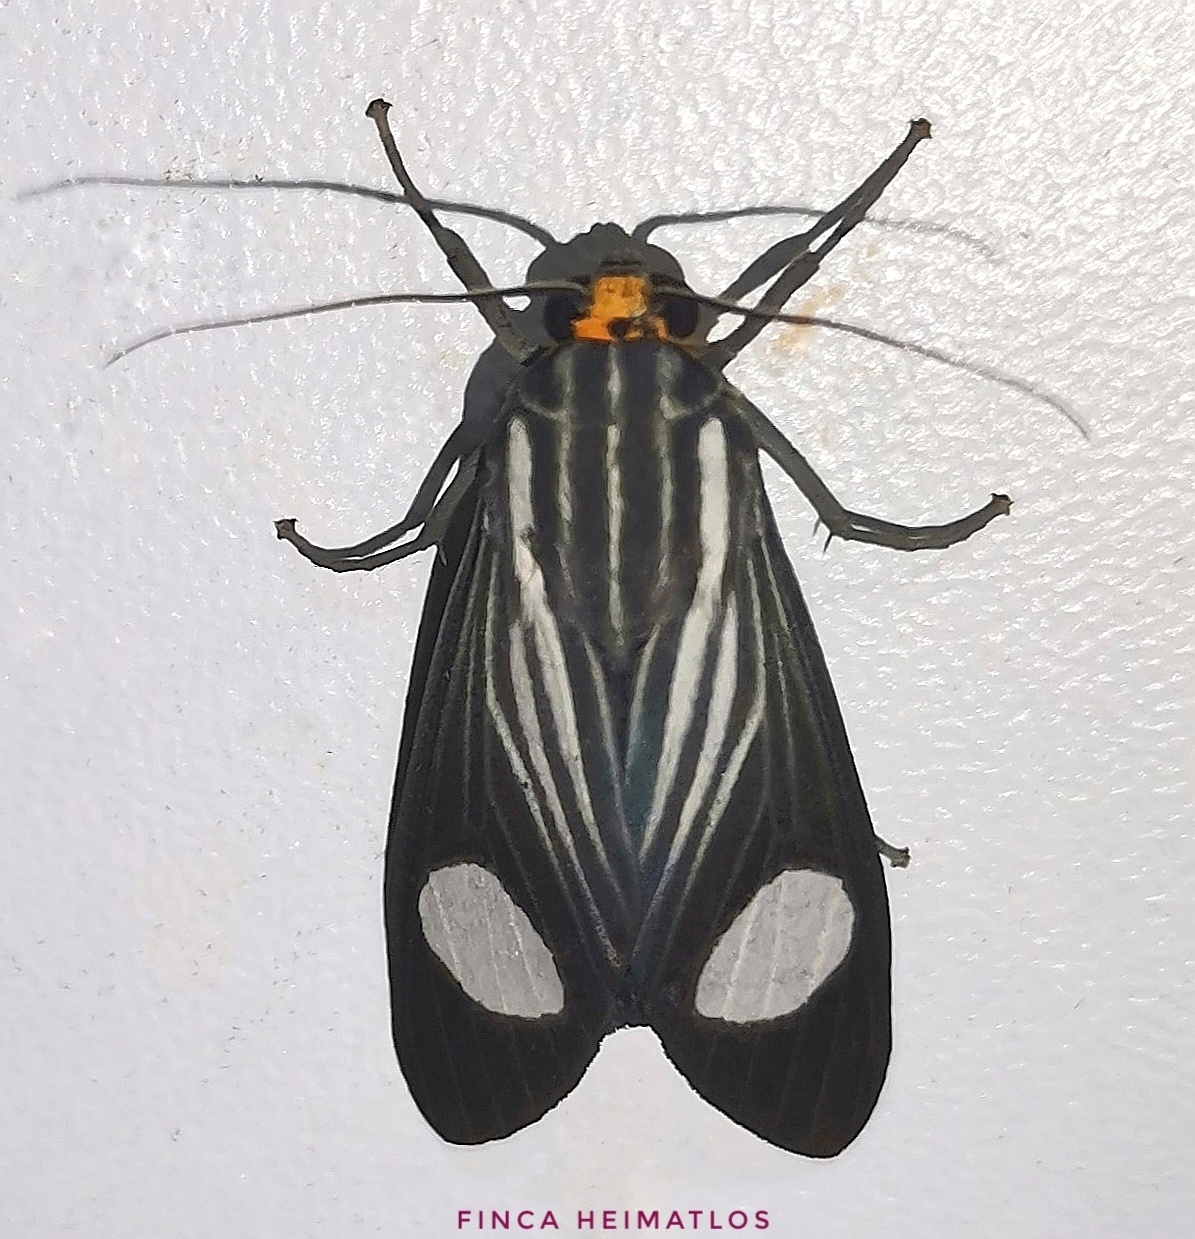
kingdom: Animalia
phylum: Arthropoda
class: Insecta
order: Lepidoptera
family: Erebidae
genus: Rhipha
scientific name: Rhipha niveomaculata
